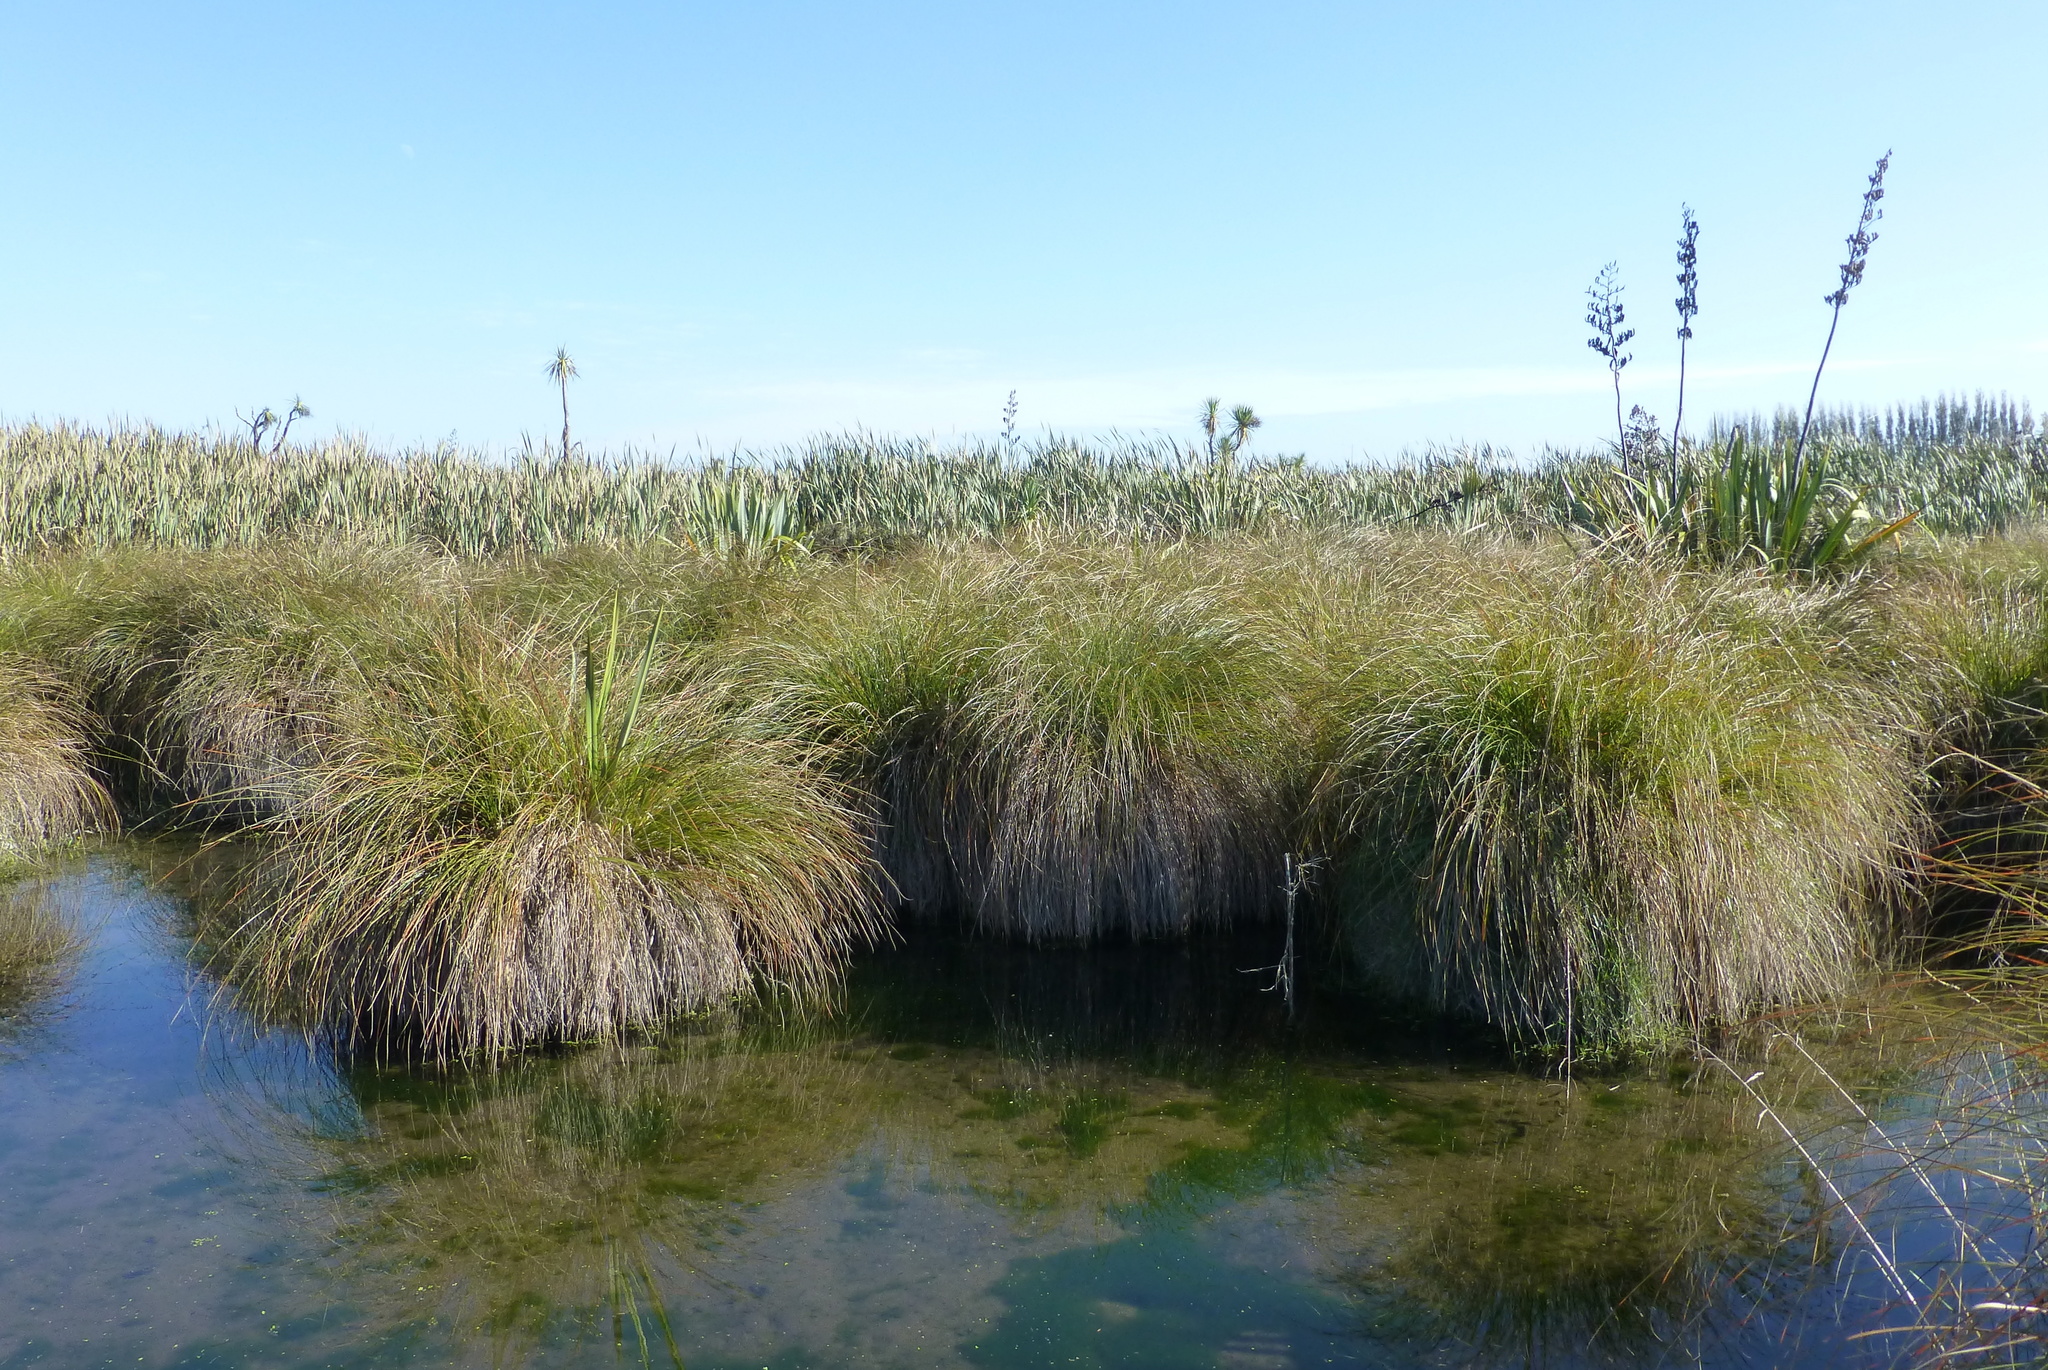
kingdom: Plantae
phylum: Tracheophyta
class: Liliopsida
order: Poales
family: Cyperaceae
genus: Carex
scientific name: Carex secta
